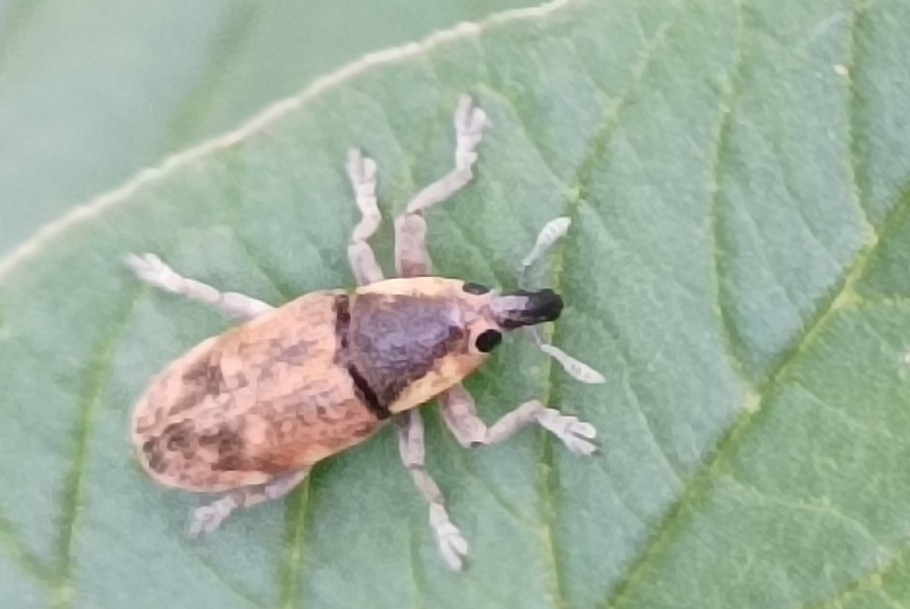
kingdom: Animalia
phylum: Arthropoda
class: Insecta
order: Coleoptera
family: Curculionidae
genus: Hypolixus
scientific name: Hypolixus
